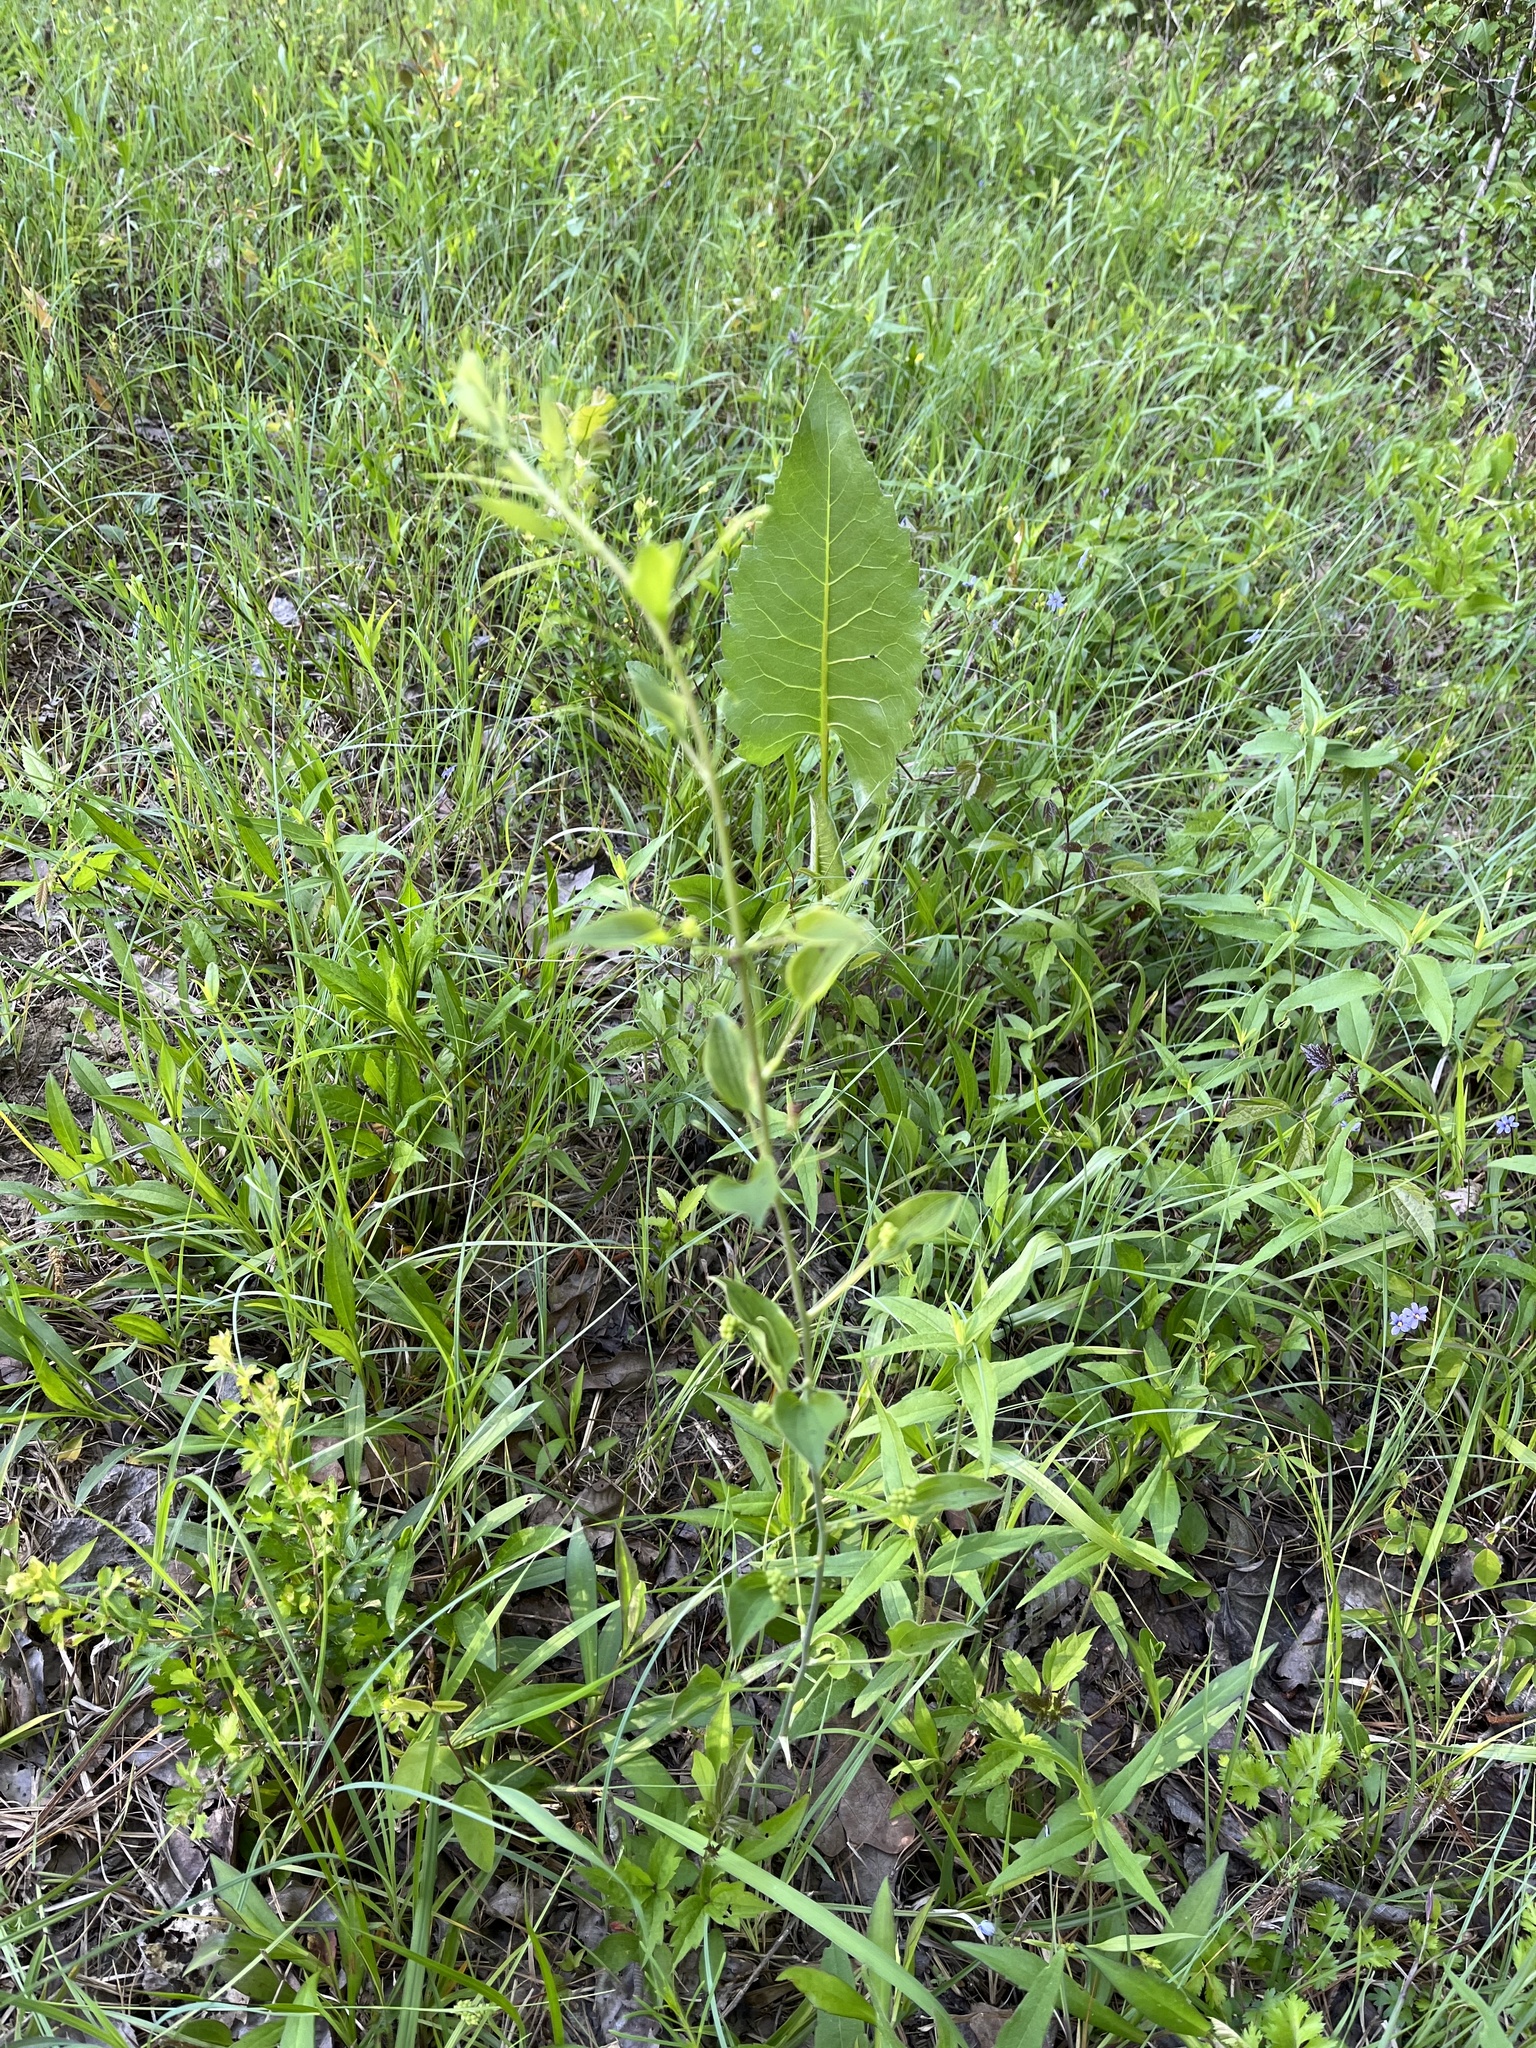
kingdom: Plantae
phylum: Tracheophyta
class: Liliopsida
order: Liliales
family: Smilacaceae
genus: Smilax
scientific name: Smilax herbacea
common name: Jacob's-ladder
